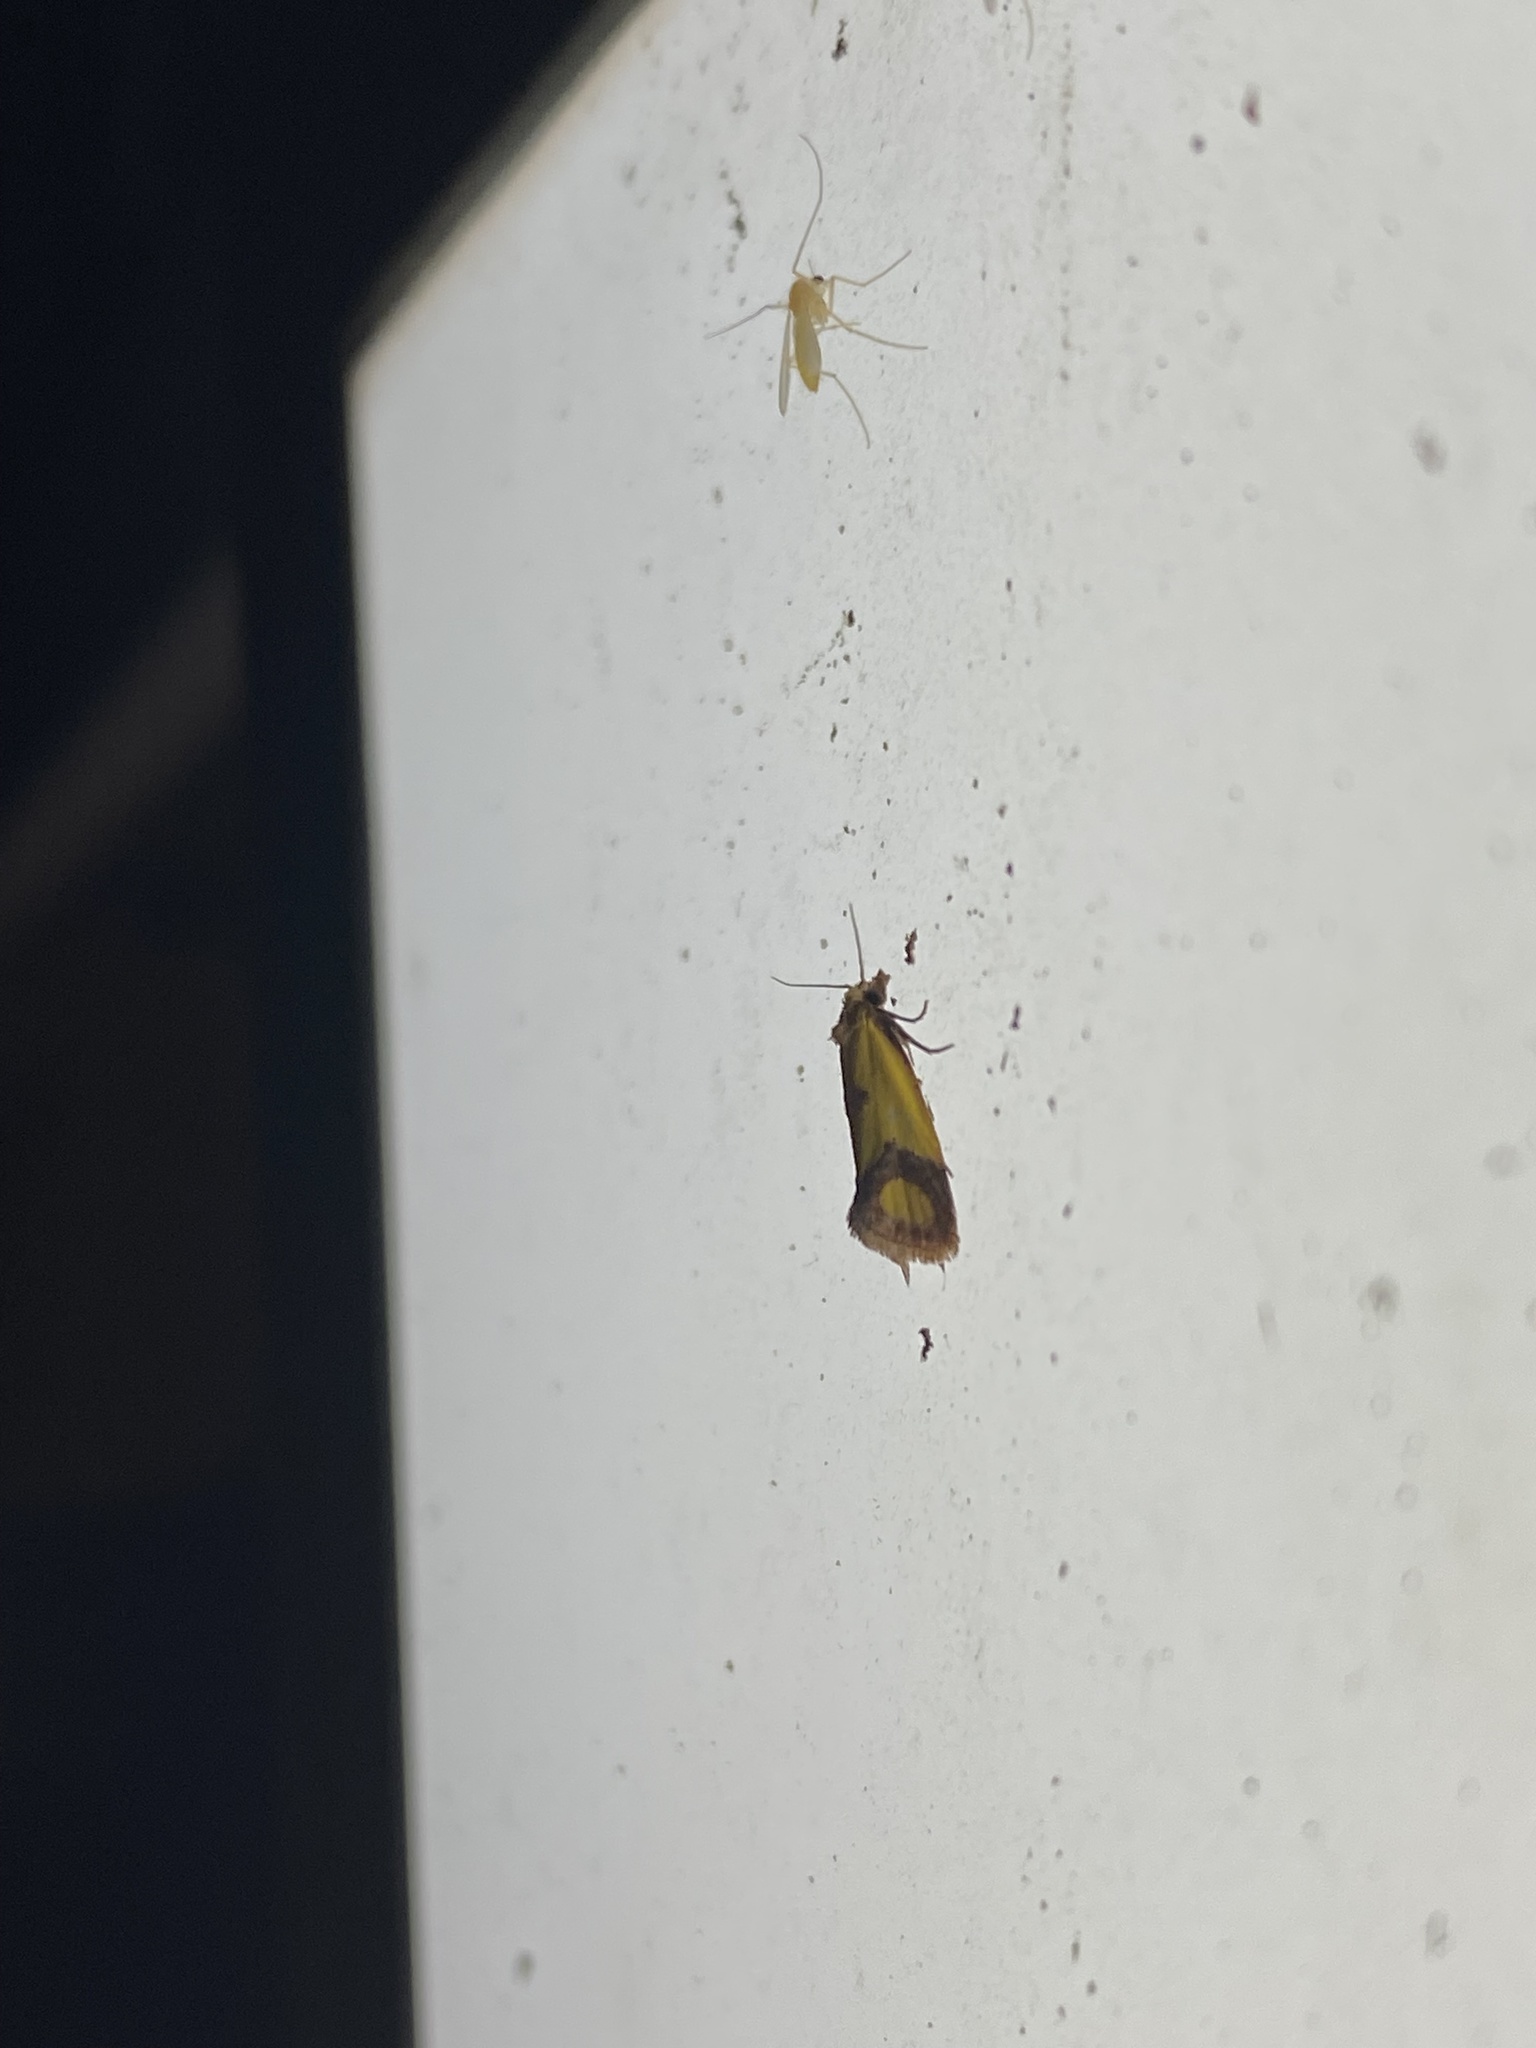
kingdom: Animalia
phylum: Arthropoda
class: Insecta
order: Lepidoptera
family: Tortricidae
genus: Agapeta
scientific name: Agapeta zoegana
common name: Sulfur knapweed root moth
